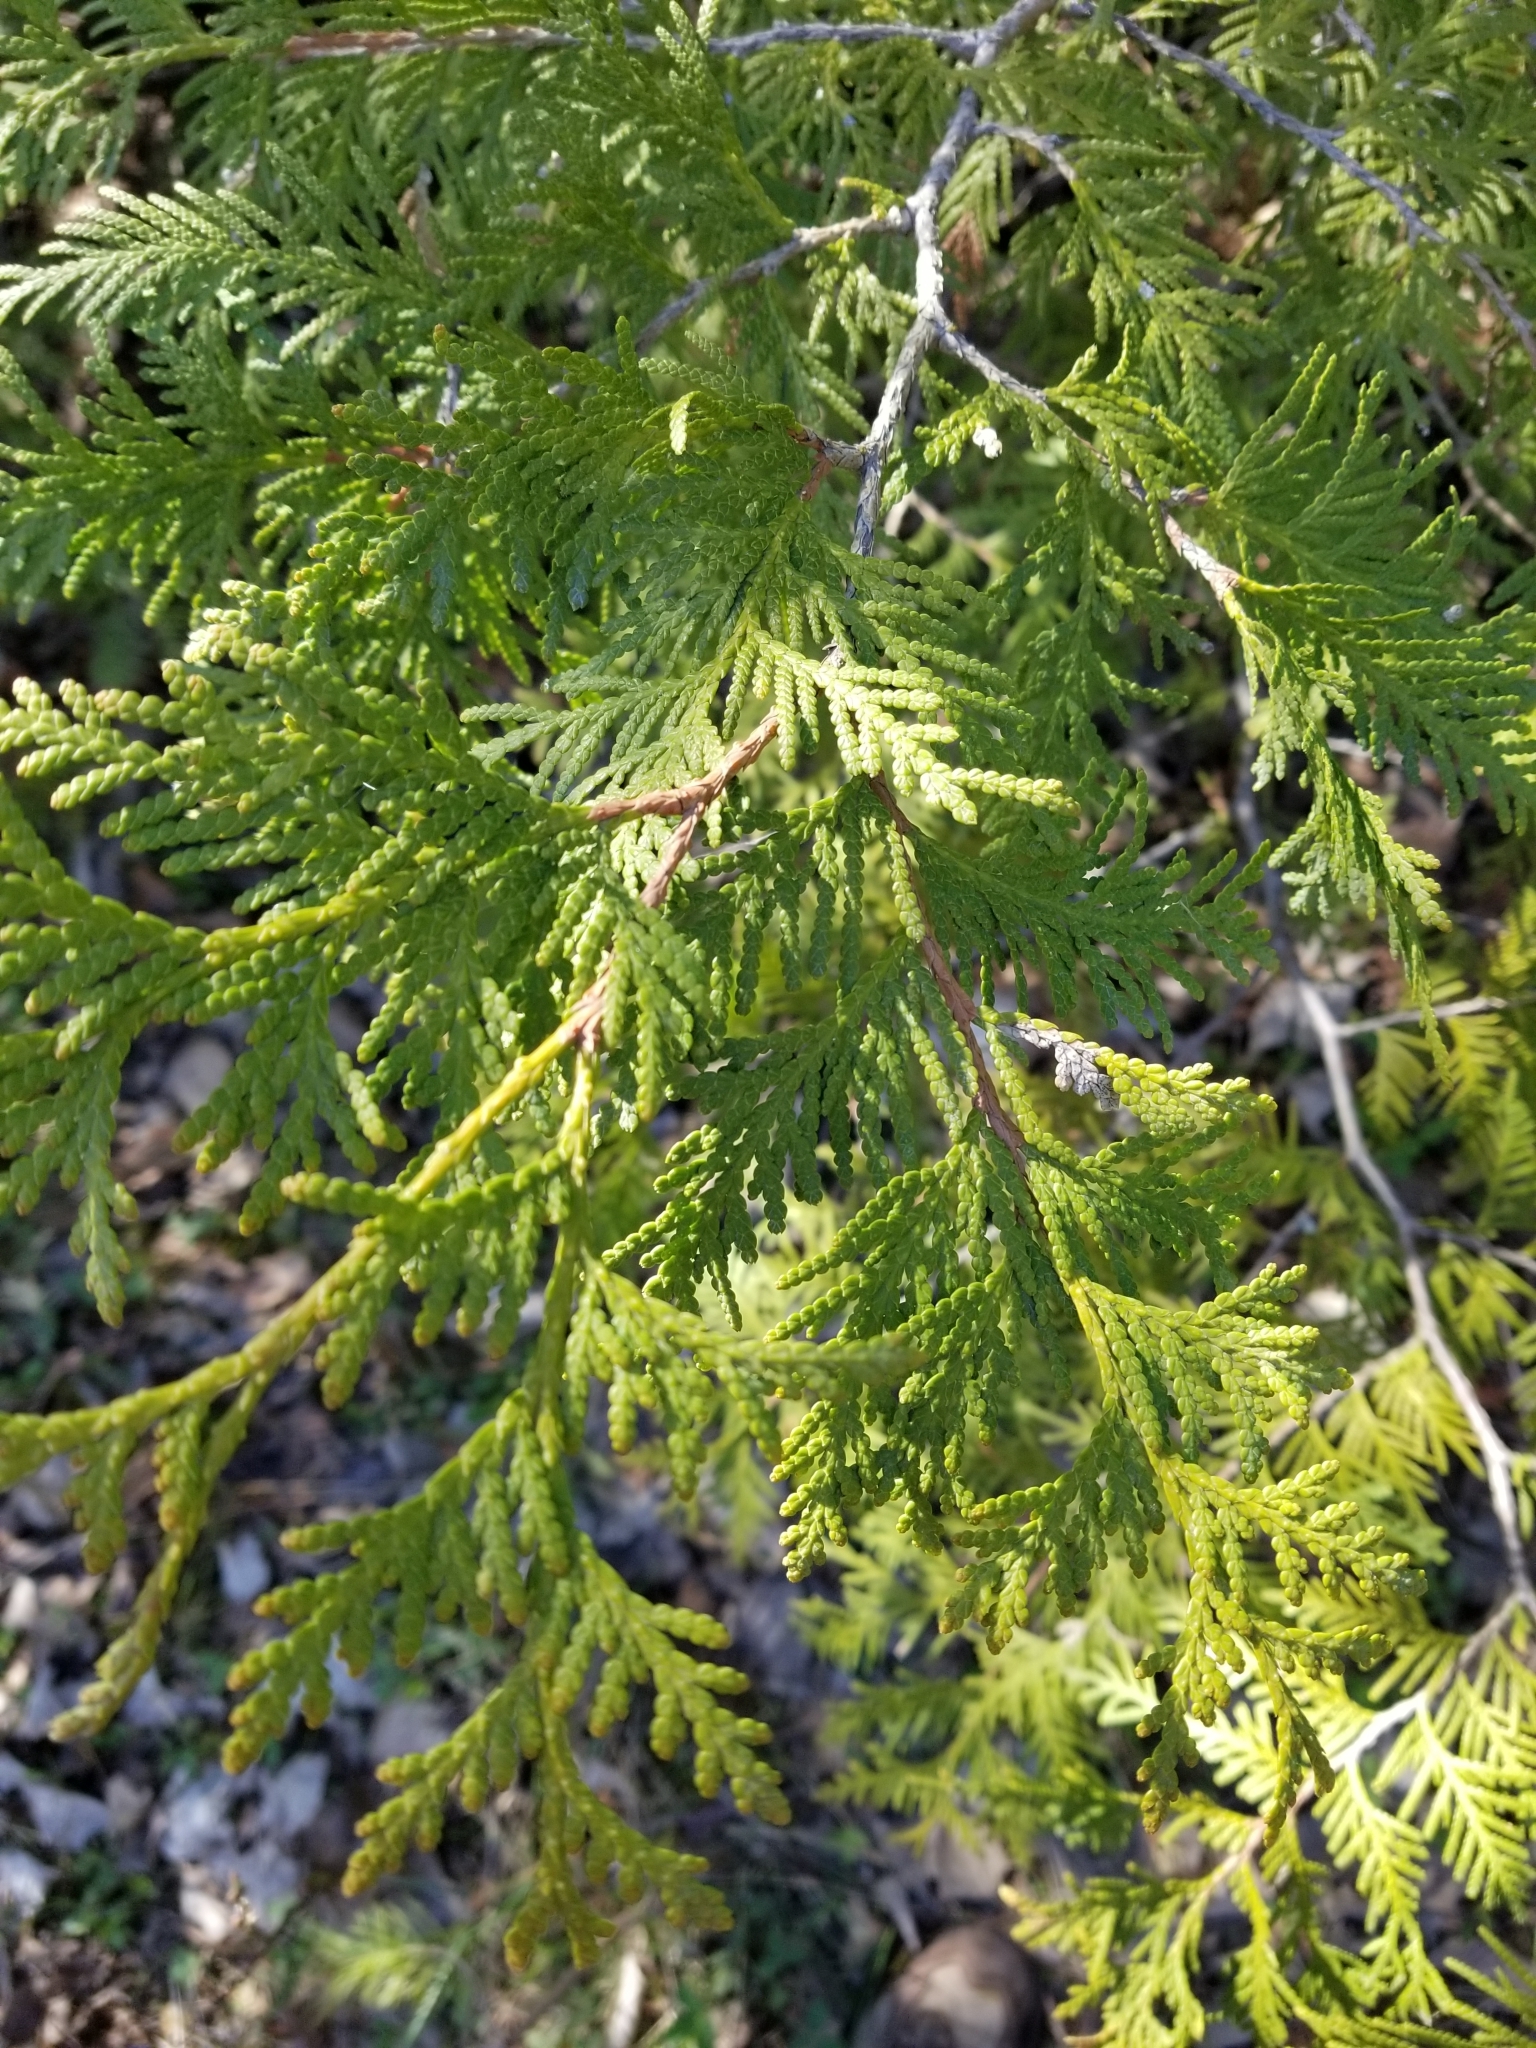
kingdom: Plantae
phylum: Tracheophyta
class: Pinopsida
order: Pinales
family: Cupressaceae
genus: Thuja
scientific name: Thuja occidentalis
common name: Northern white-cedar
